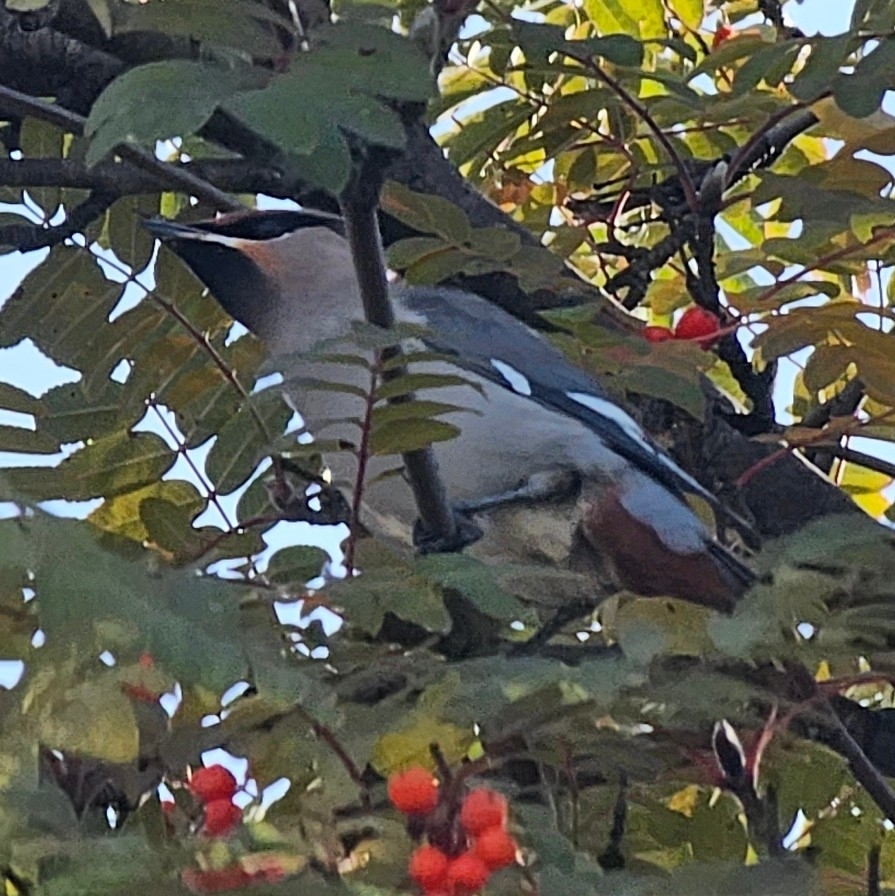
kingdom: Animalia
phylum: Chordata
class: Aves
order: Passeriformes
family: Bombycillidae
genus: Bombycilla
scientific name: Bombycilla garrulus
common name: Bohemian waxwing
